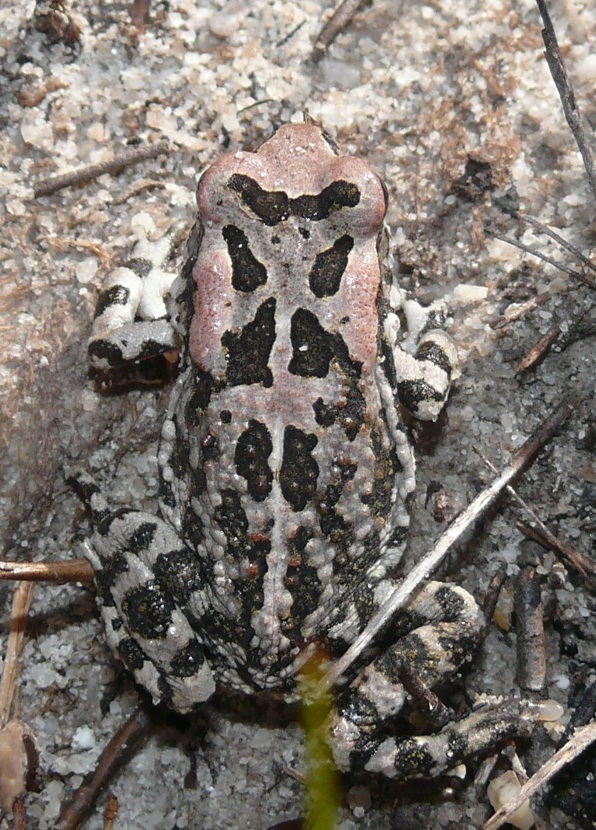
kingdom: Animalia
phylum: Chordata
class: Amphibia
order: Anura
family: Bufonidae
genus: Sclerophrys
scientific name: Sclerophrys capensis
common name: Ranger’s toad
